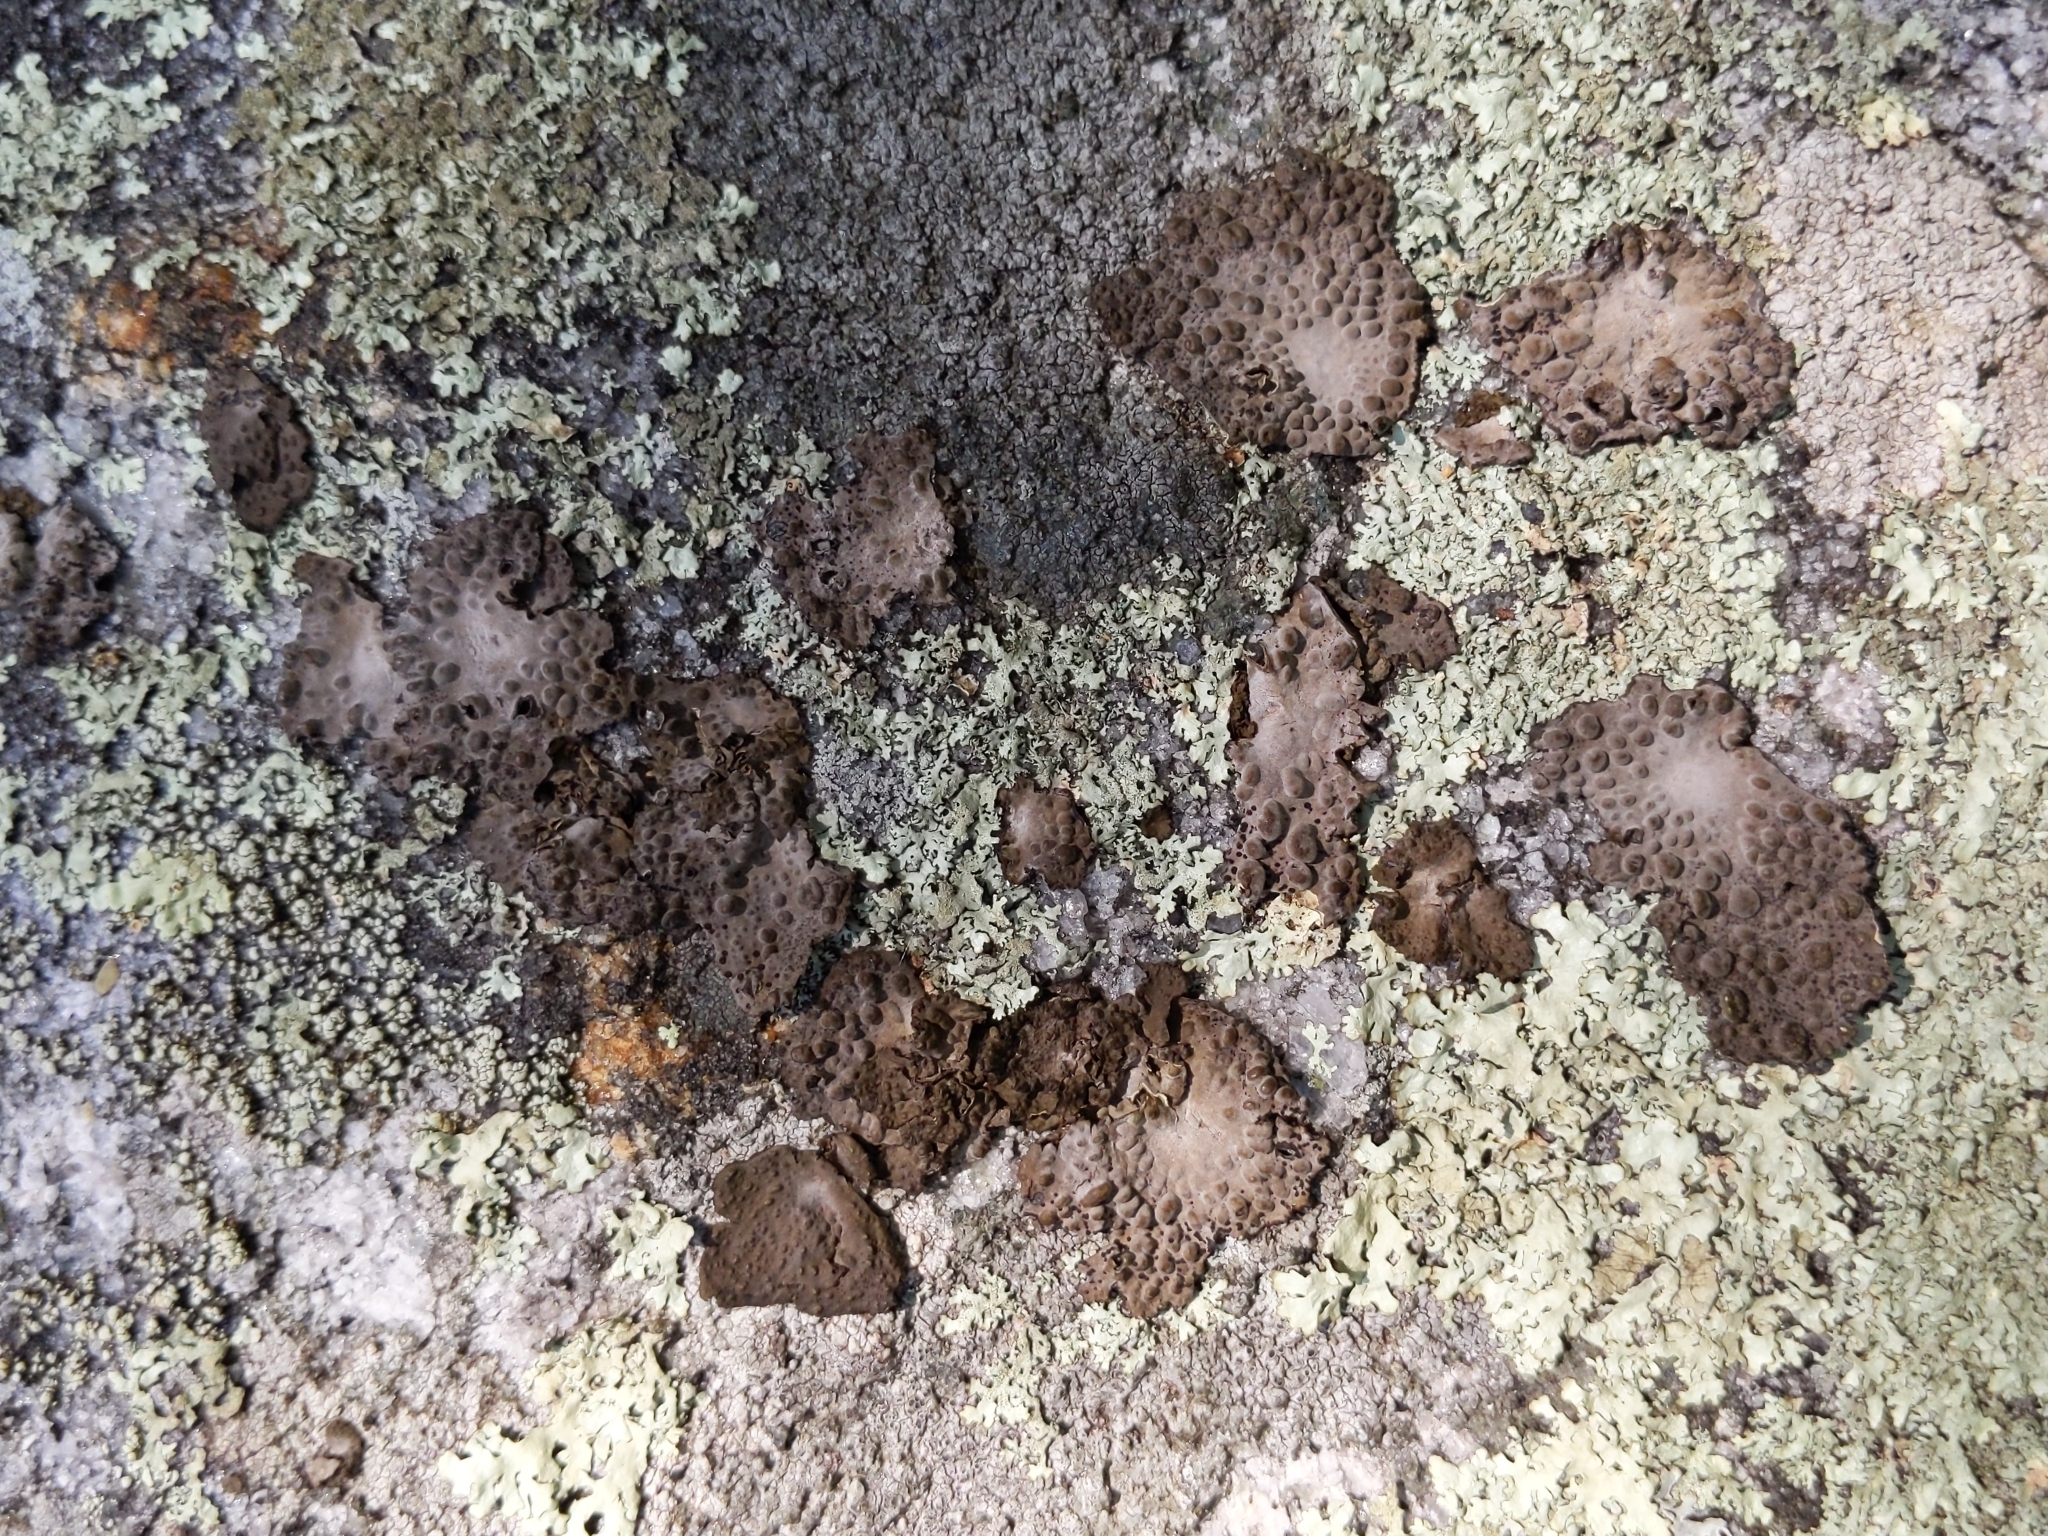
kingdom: Fungi
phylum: Ascomycota
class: Lecanoromycetes
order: Umbilicariales
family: Umbilicariaceae
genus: Lasallia
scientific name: Lasallia papulosa
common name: Common toadskin lichen
